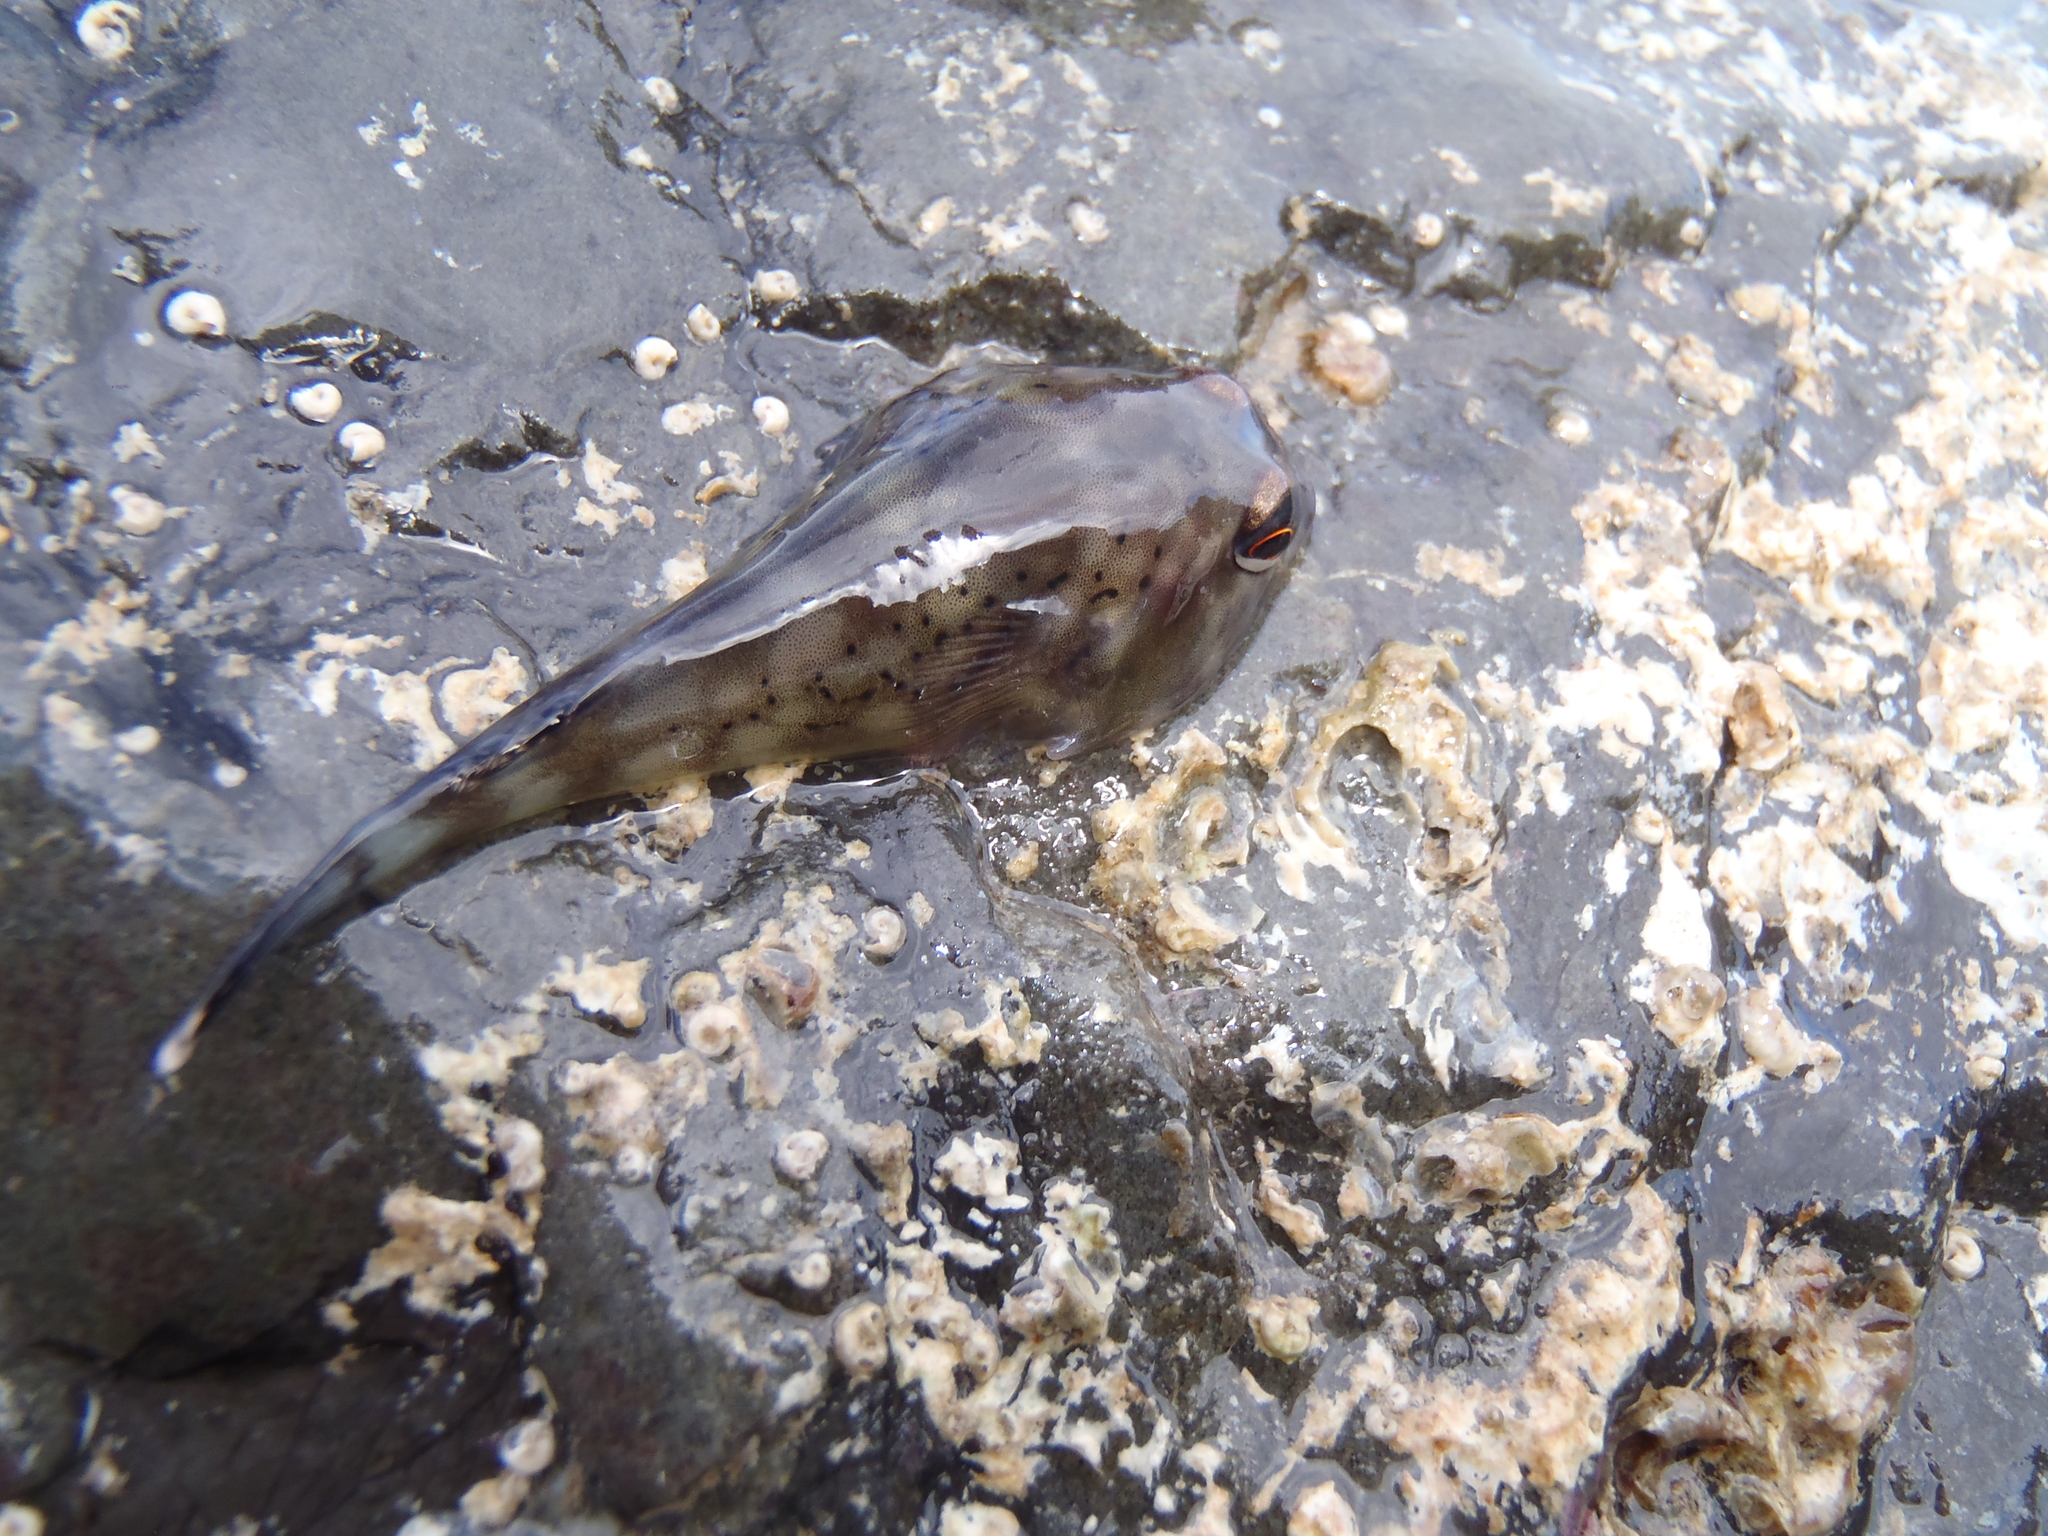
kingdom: Animalia
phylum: Chordata
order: Gobiesociformes
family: Gobiesocidae
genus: Diplocrepis
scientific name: Diplocrepis puniceus
